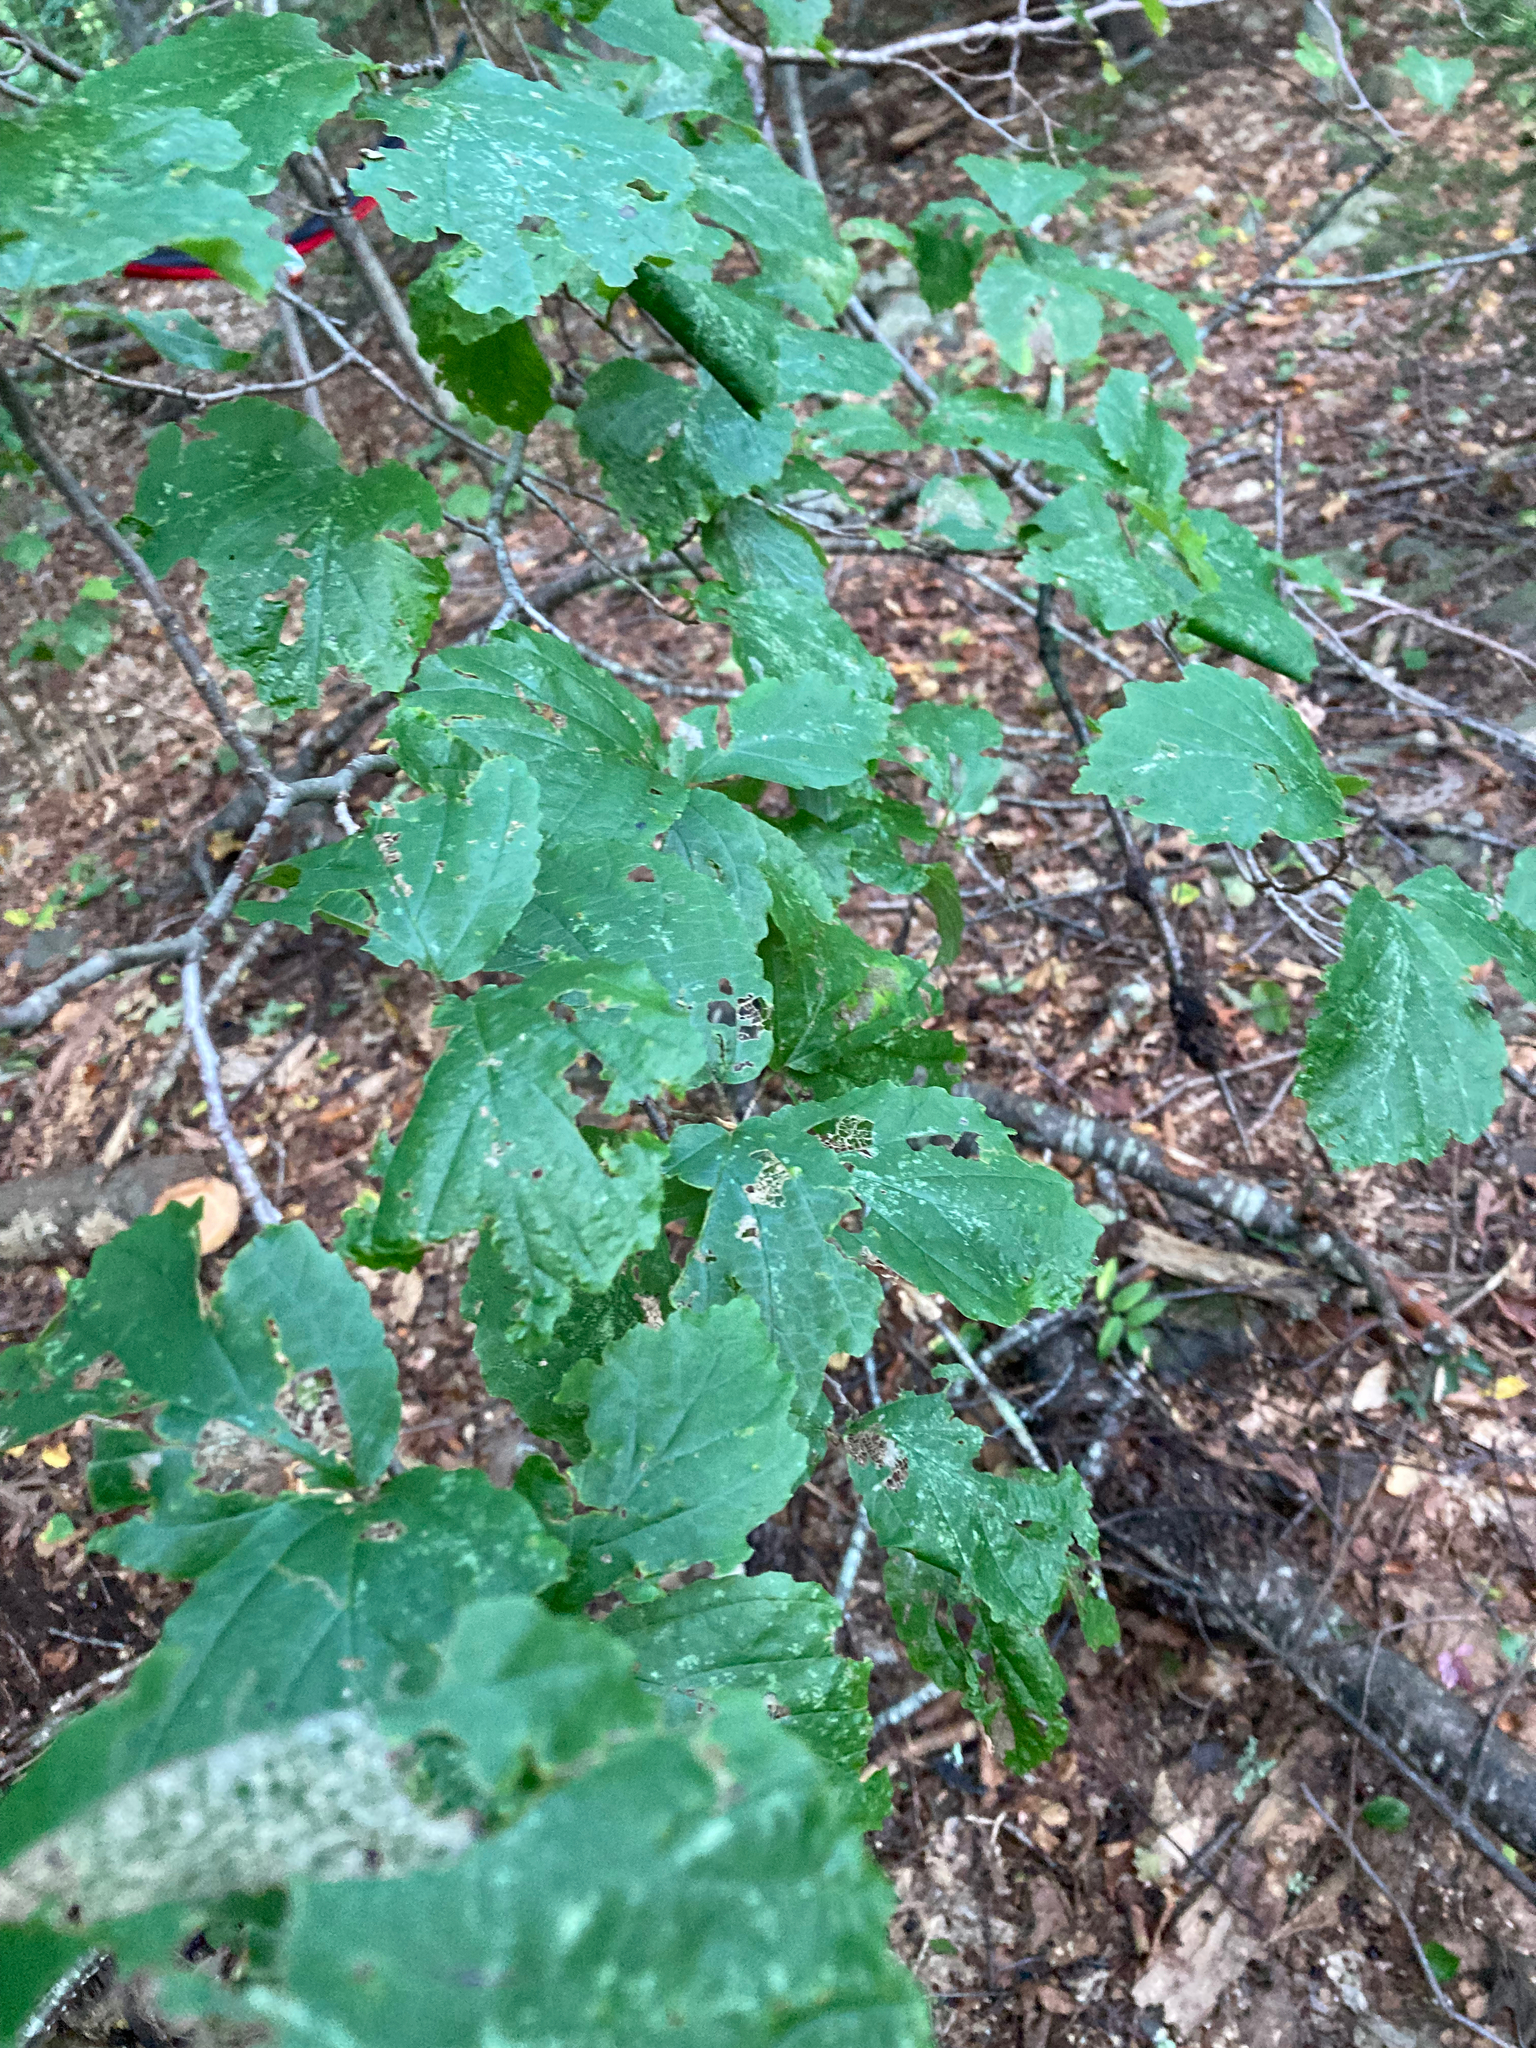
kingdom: Plantae
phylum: Tracheophyta
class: Magnoliopsida
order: Saxifragales
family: Hamamelidaceae
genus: Hamamelis
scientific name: Hamamelis virginiana
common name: Witch-hazel
